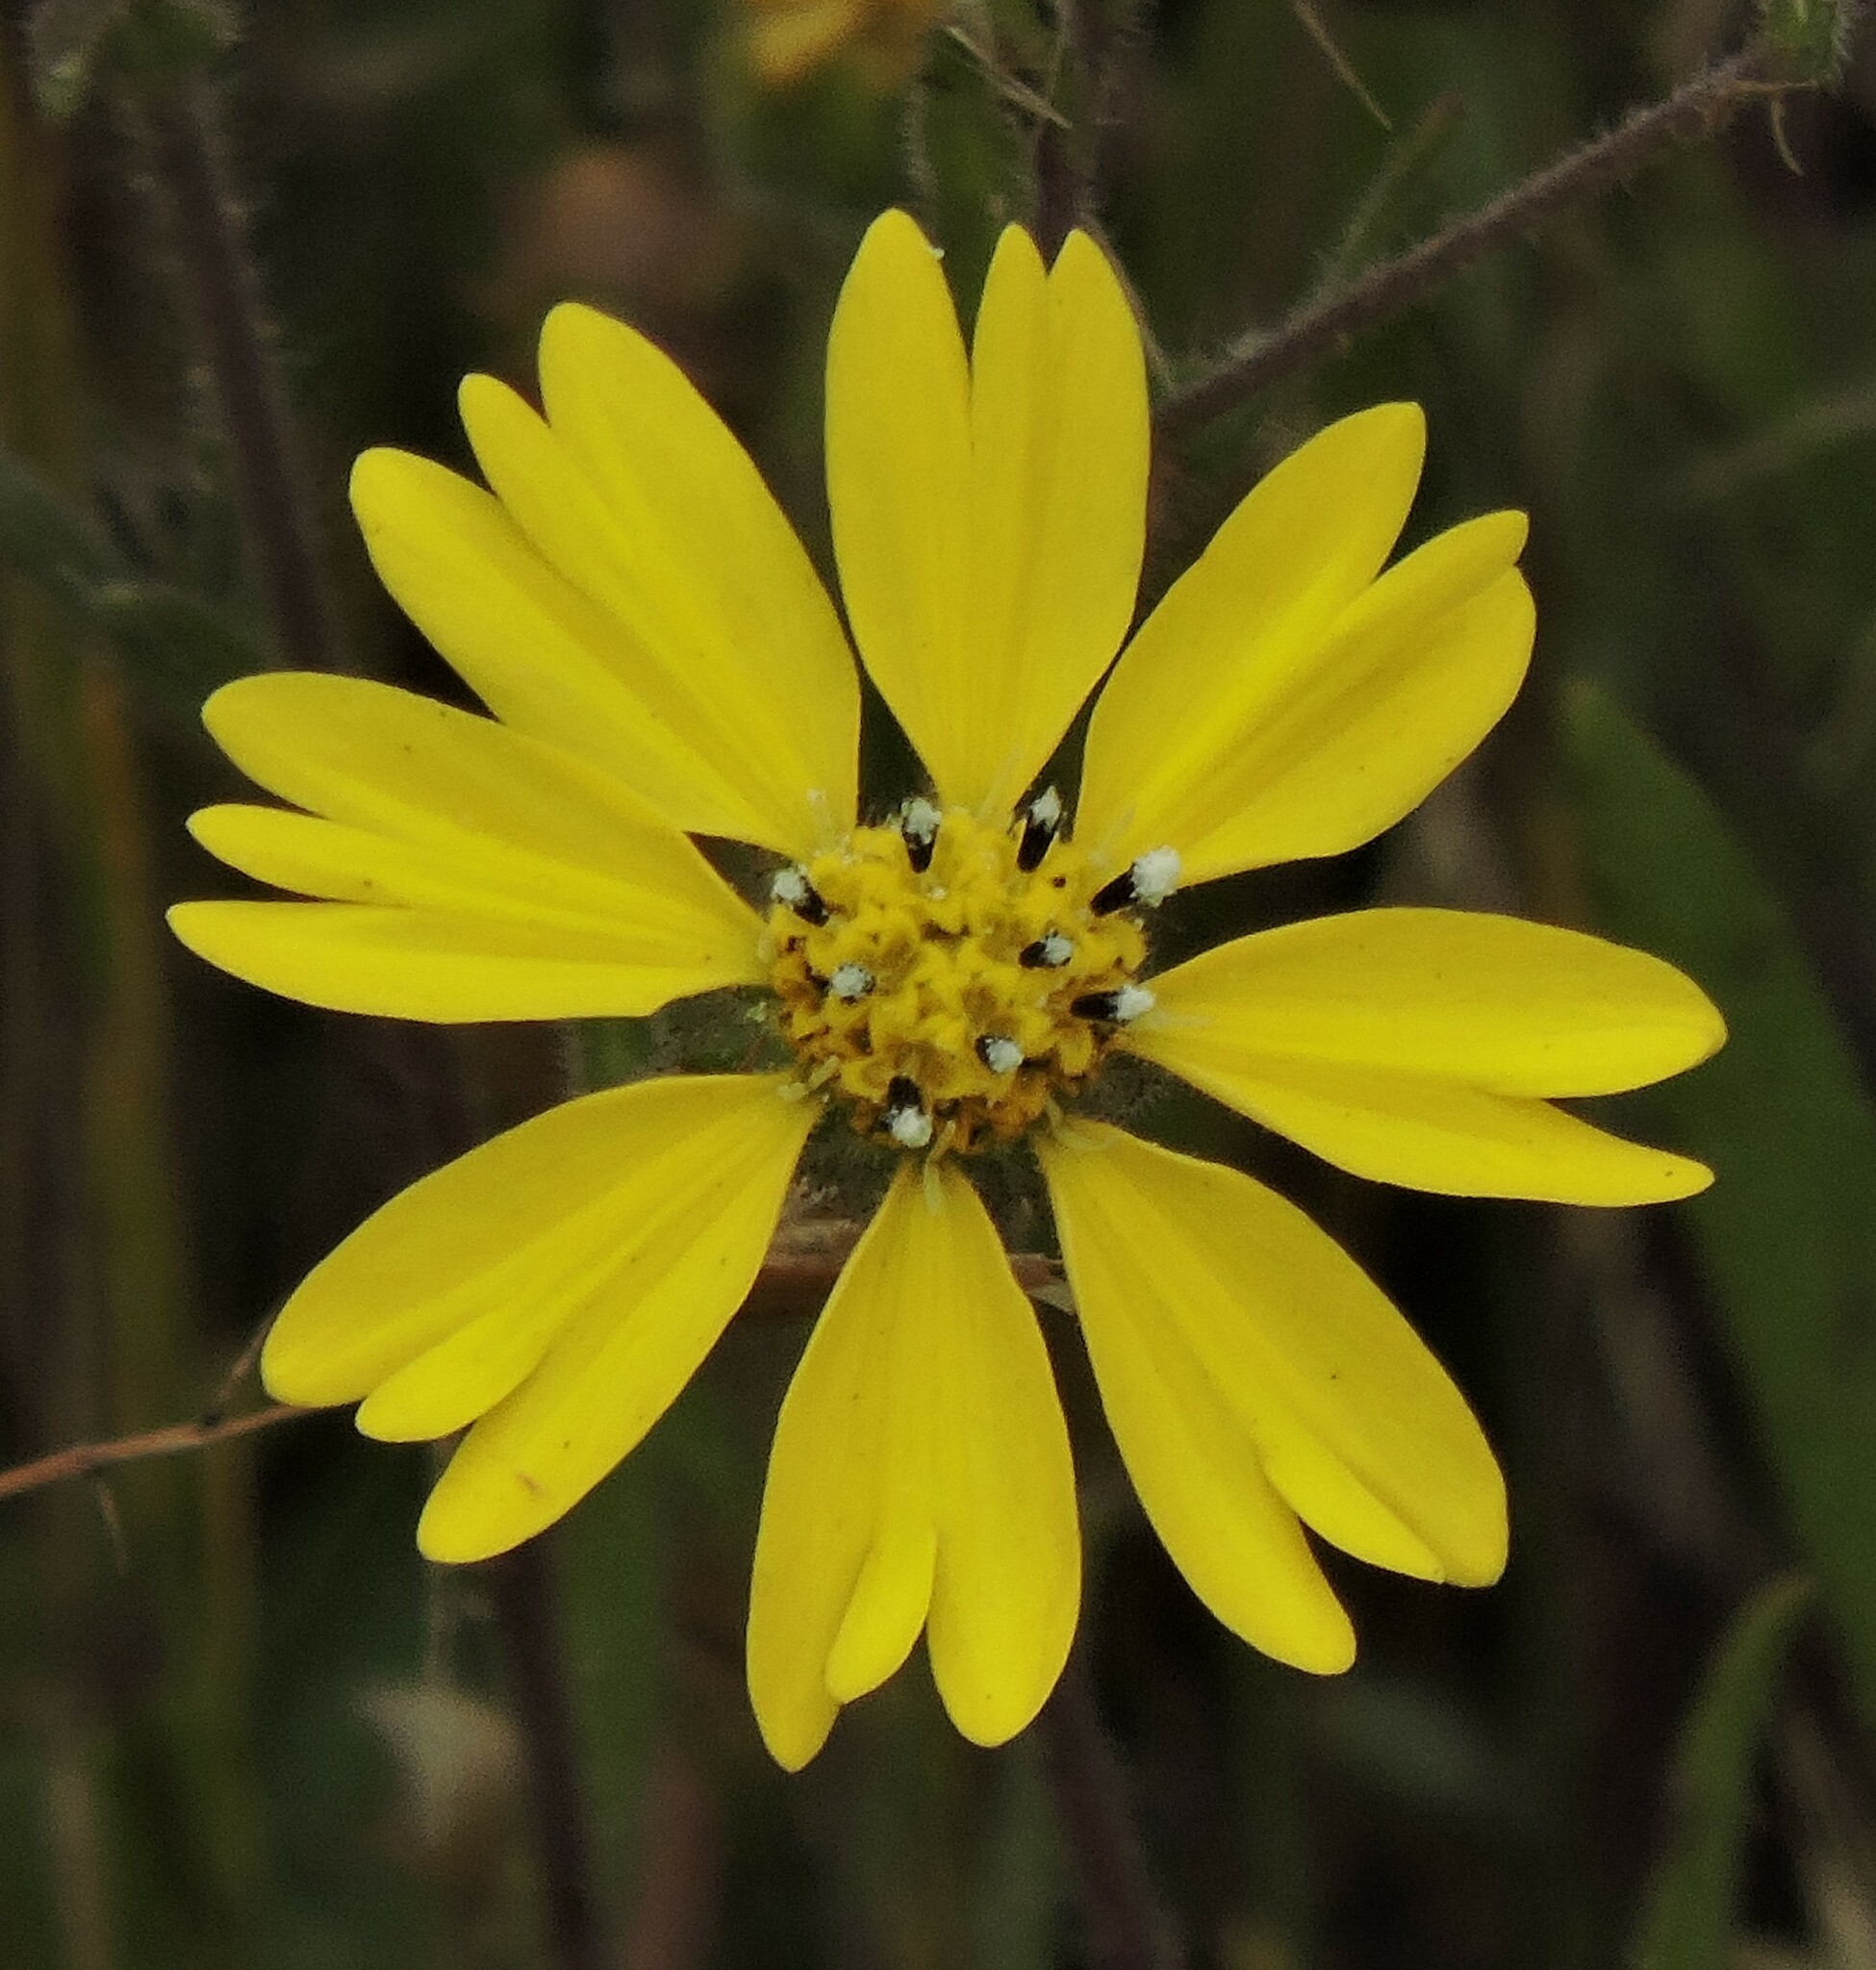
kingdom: Plantae
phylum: Tracheophyta
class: Magnoliopsida
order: Asterales
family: Asteraceae
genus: Hemizonia
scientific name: Hemizonia congesta
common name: Hayfield tarweed
